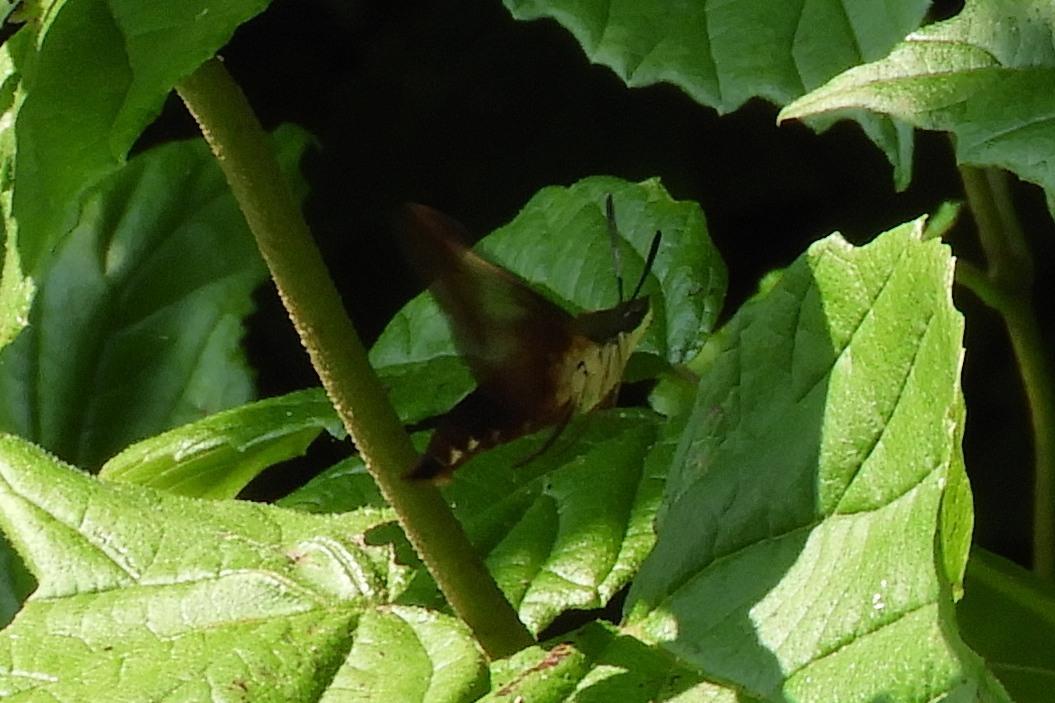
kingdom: Animalia
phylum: Arthropoda
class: Insecta
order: Lepidoptera
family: Sphingidae
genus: Hemaris
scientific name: Hemaris thysbe
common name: Common clear-wing
